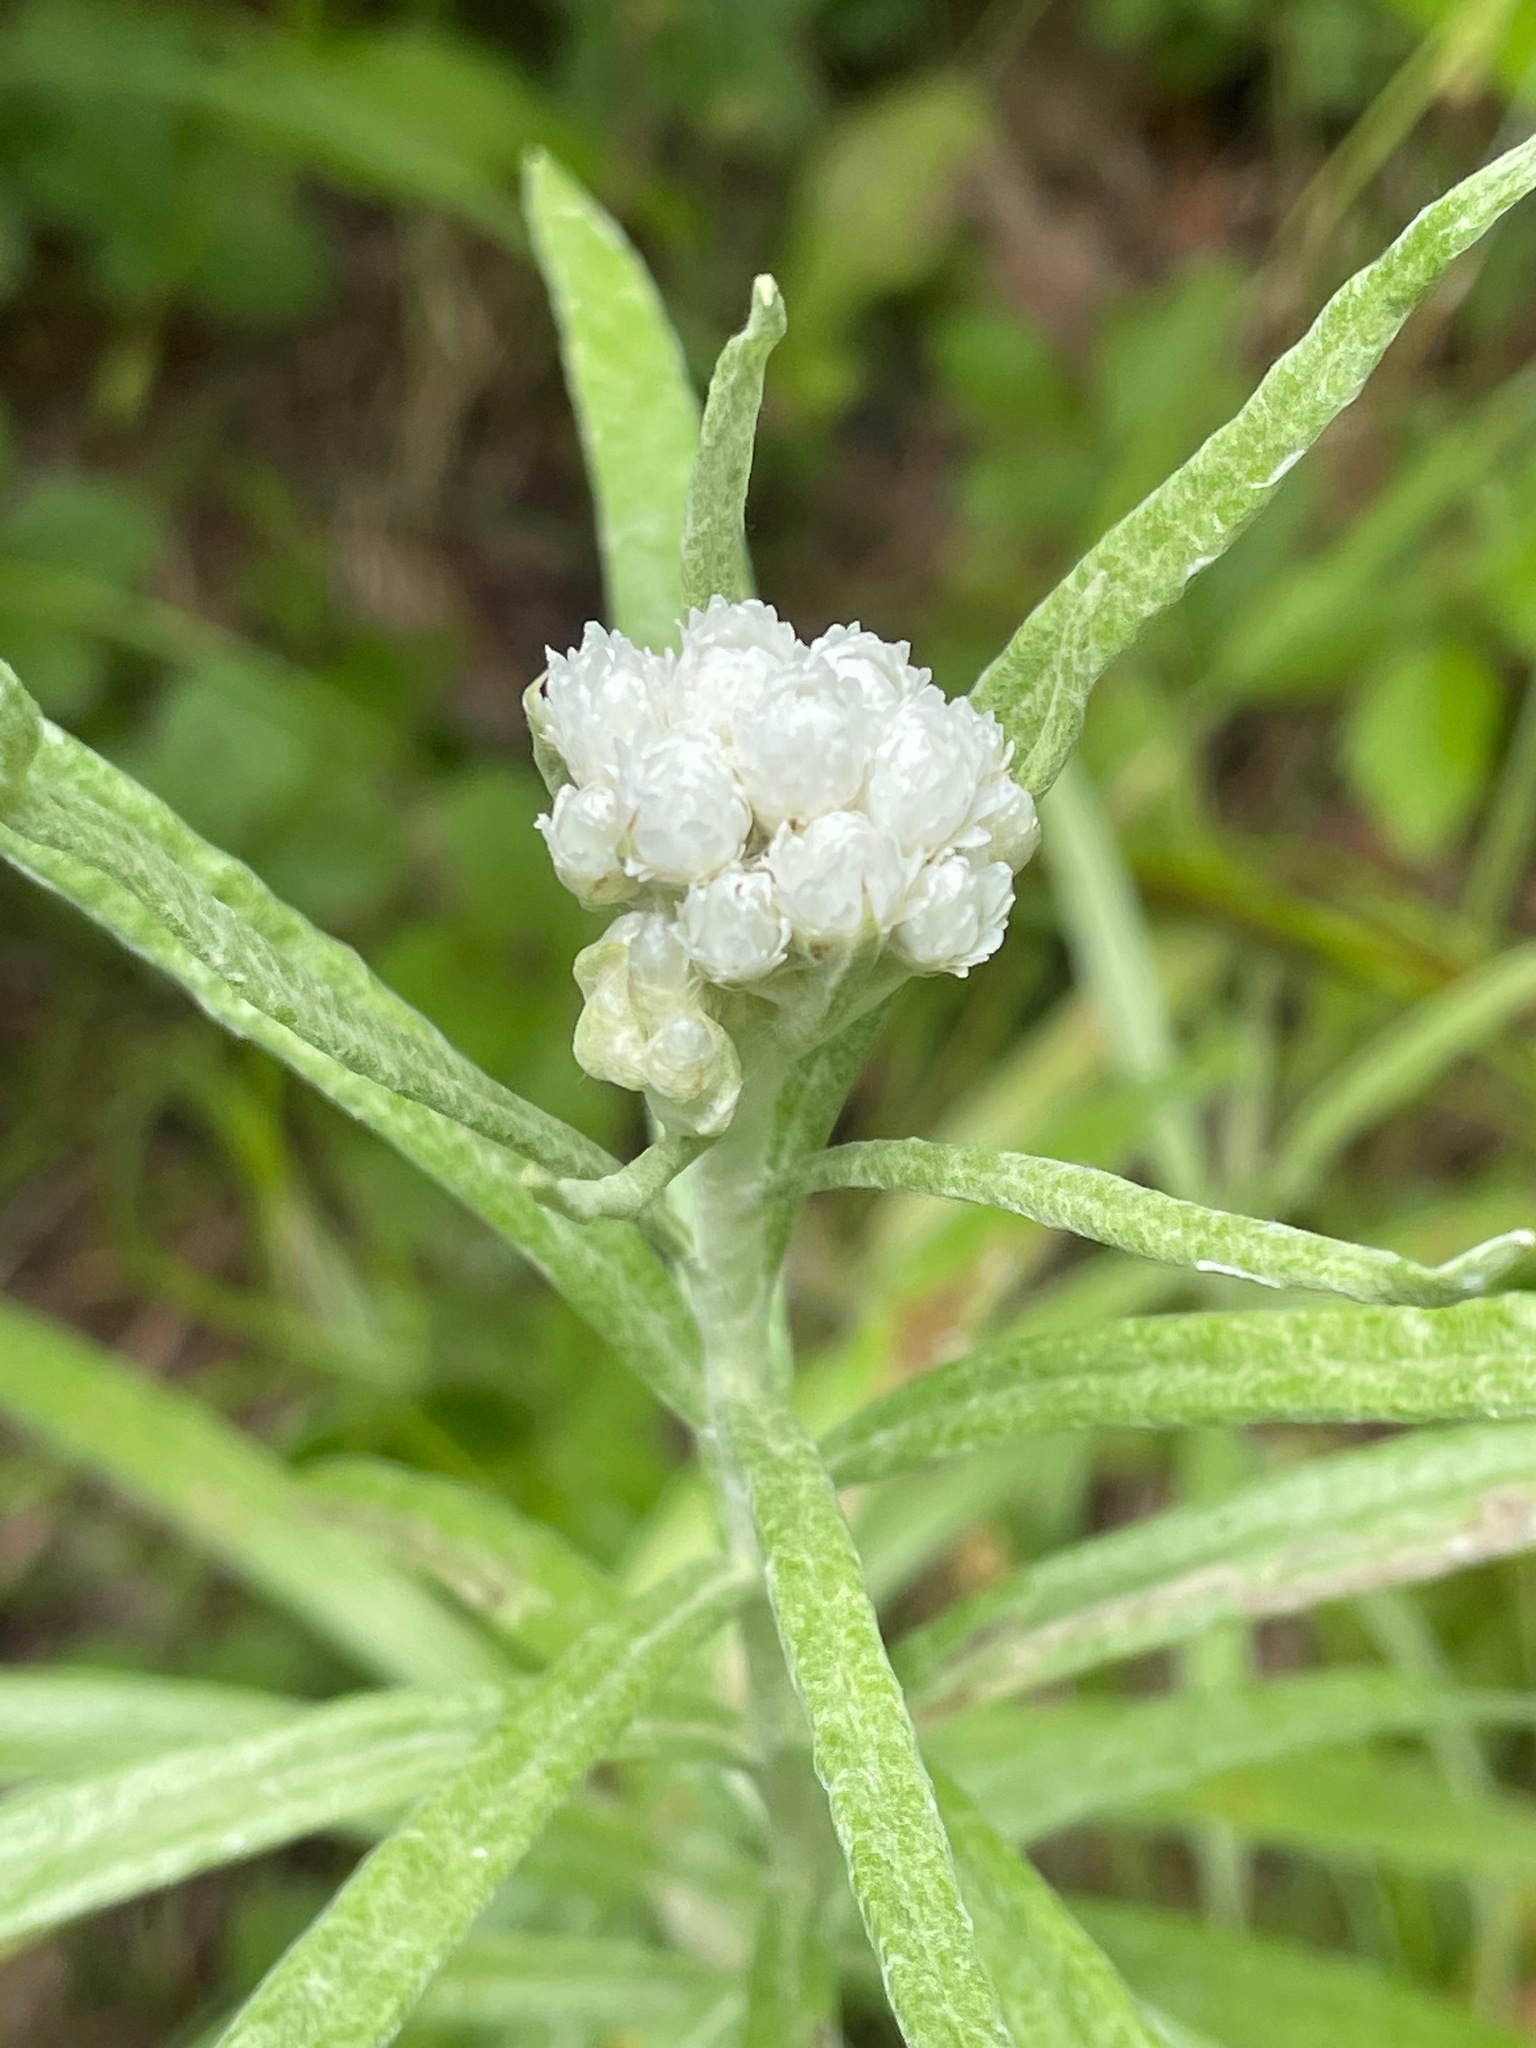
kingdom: Plantae
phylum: Tracheophyta
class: Magnoliopsida
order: Asterales
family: Asteraceae
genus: Anaphalis
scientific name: Anaphalis margaritacea
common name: Pearly everlasting
